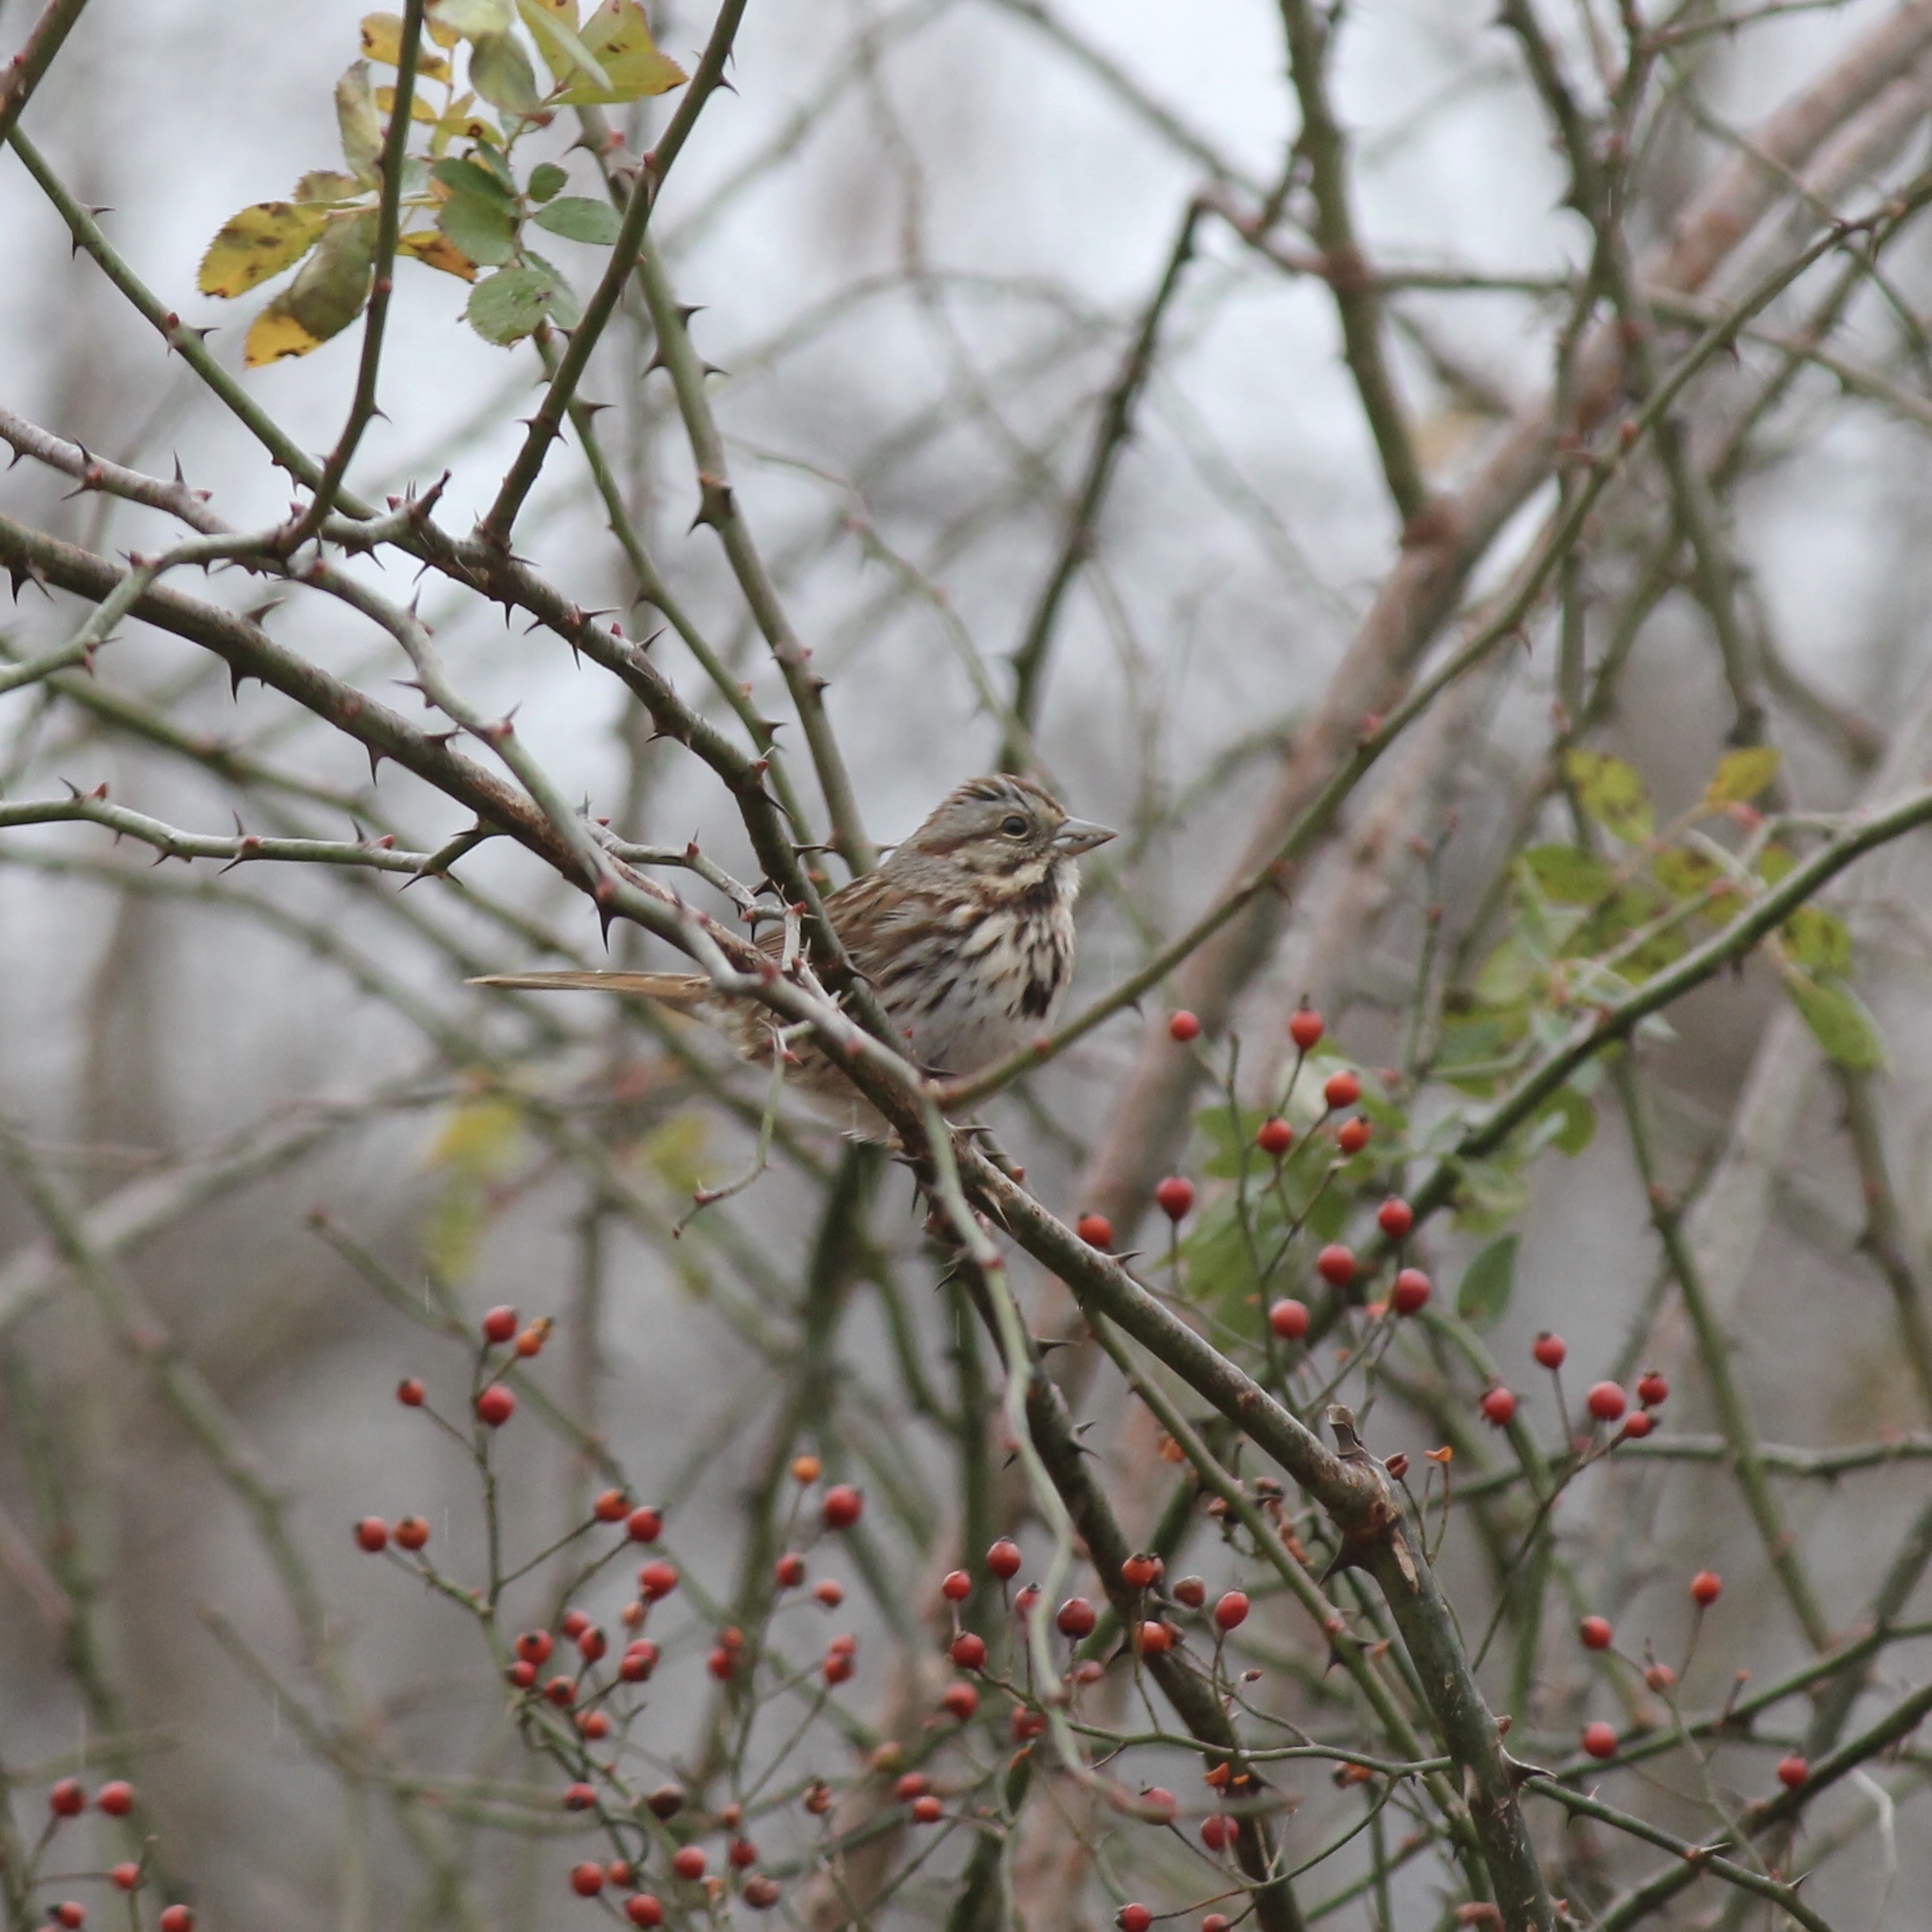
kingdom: Animalia
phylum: Chordata
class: Aves
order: Passeriformes
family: Passerellidae
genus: Melospiza
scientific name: Melospiza melodia
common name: Song sparrow
